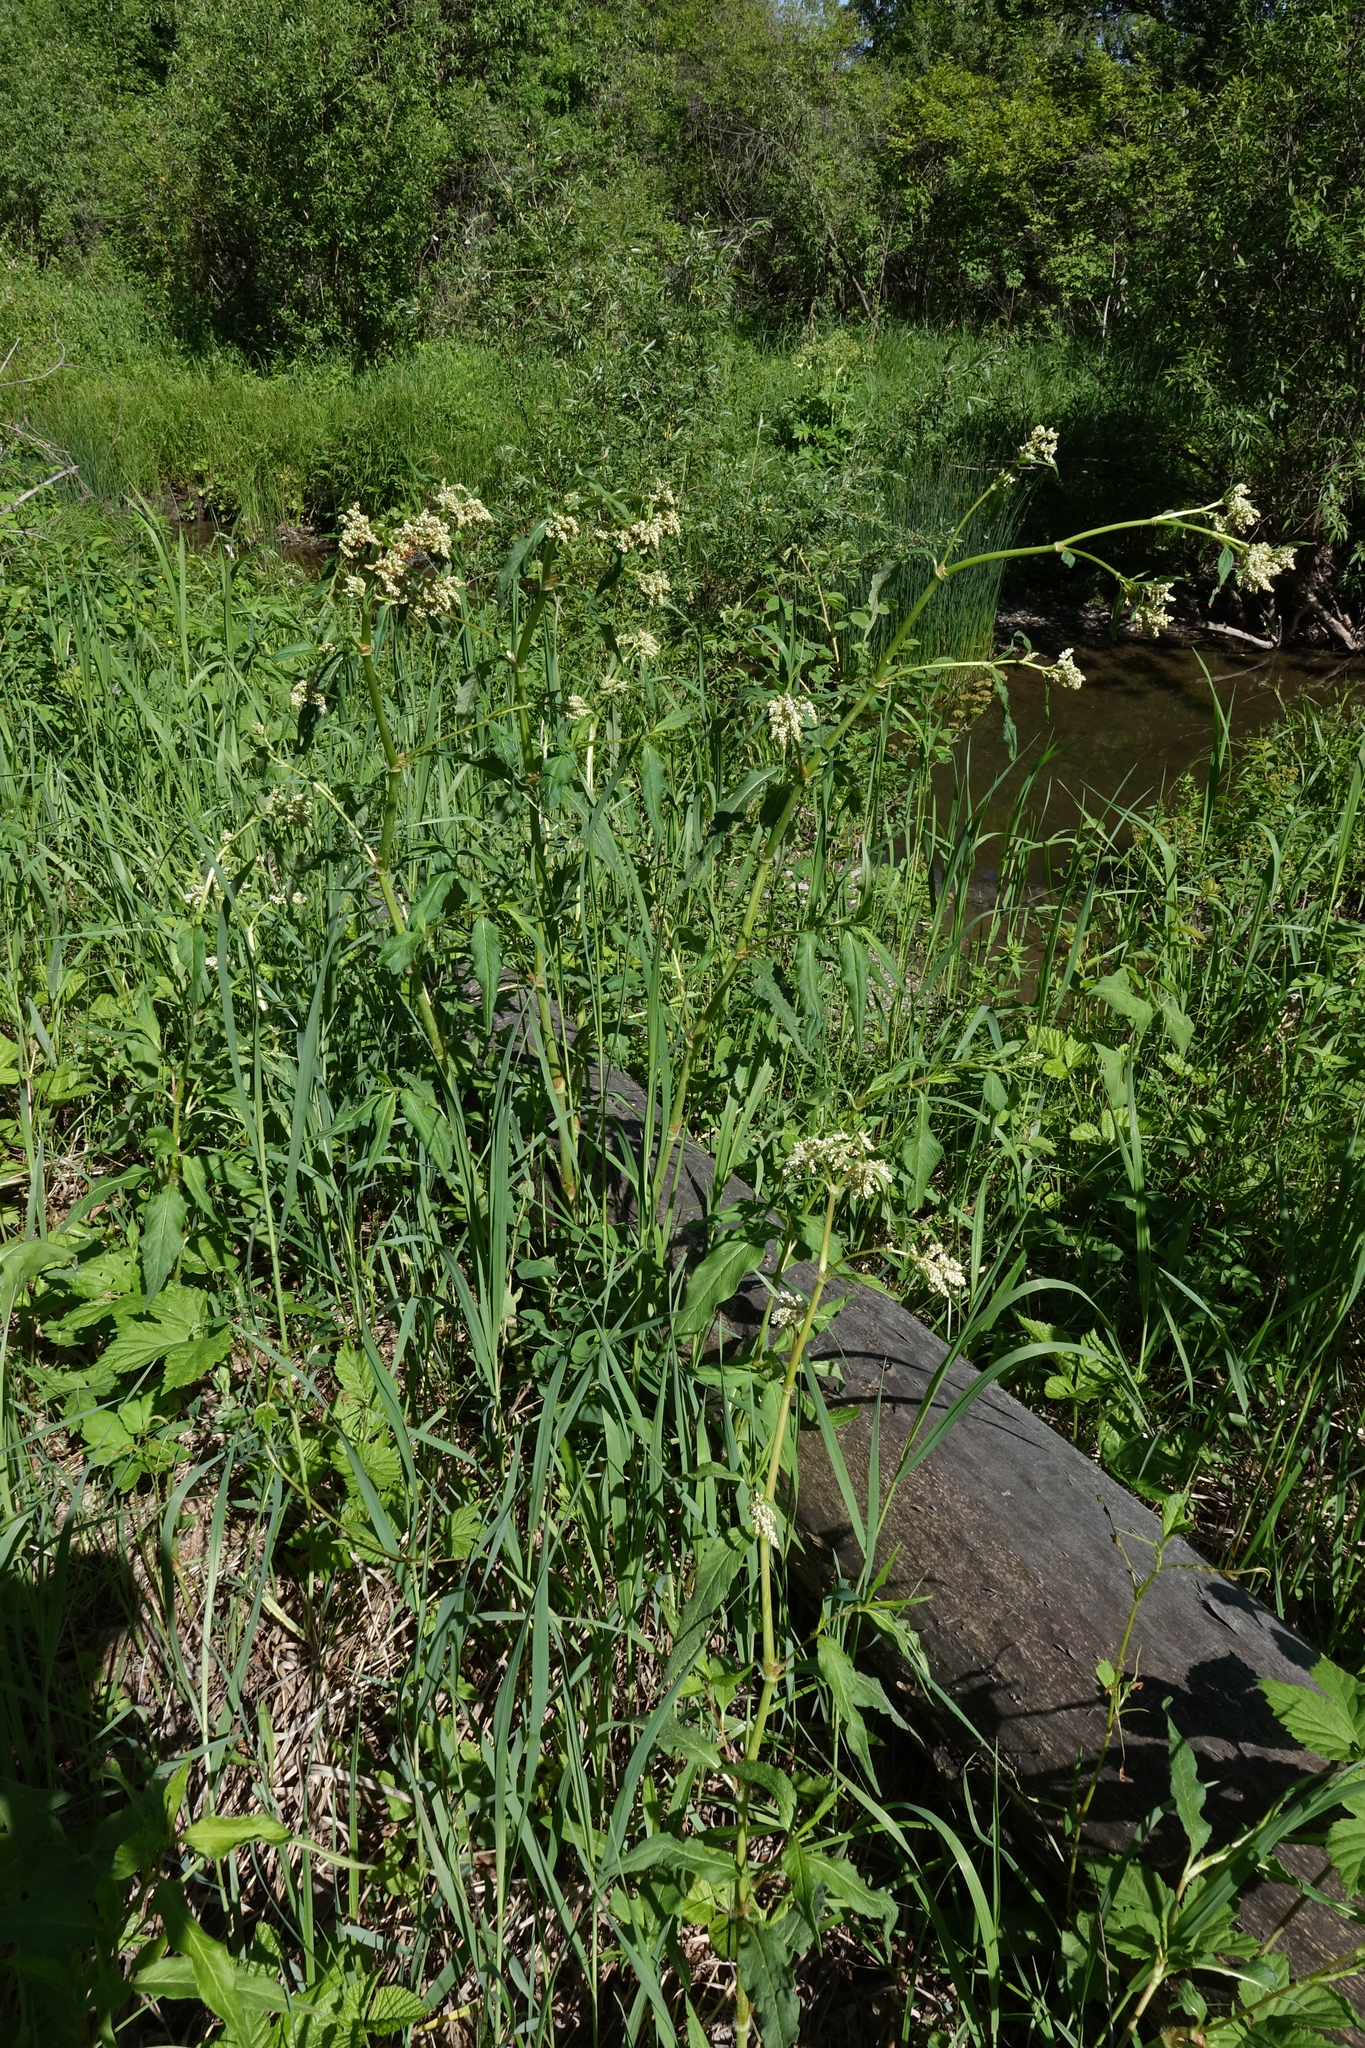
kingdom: Plantae
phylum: Tracheophyta
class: Magnoliopsida
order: Caryophyllales
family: Polygonaceae
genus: Koenigia
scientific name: Koenigia alpina
